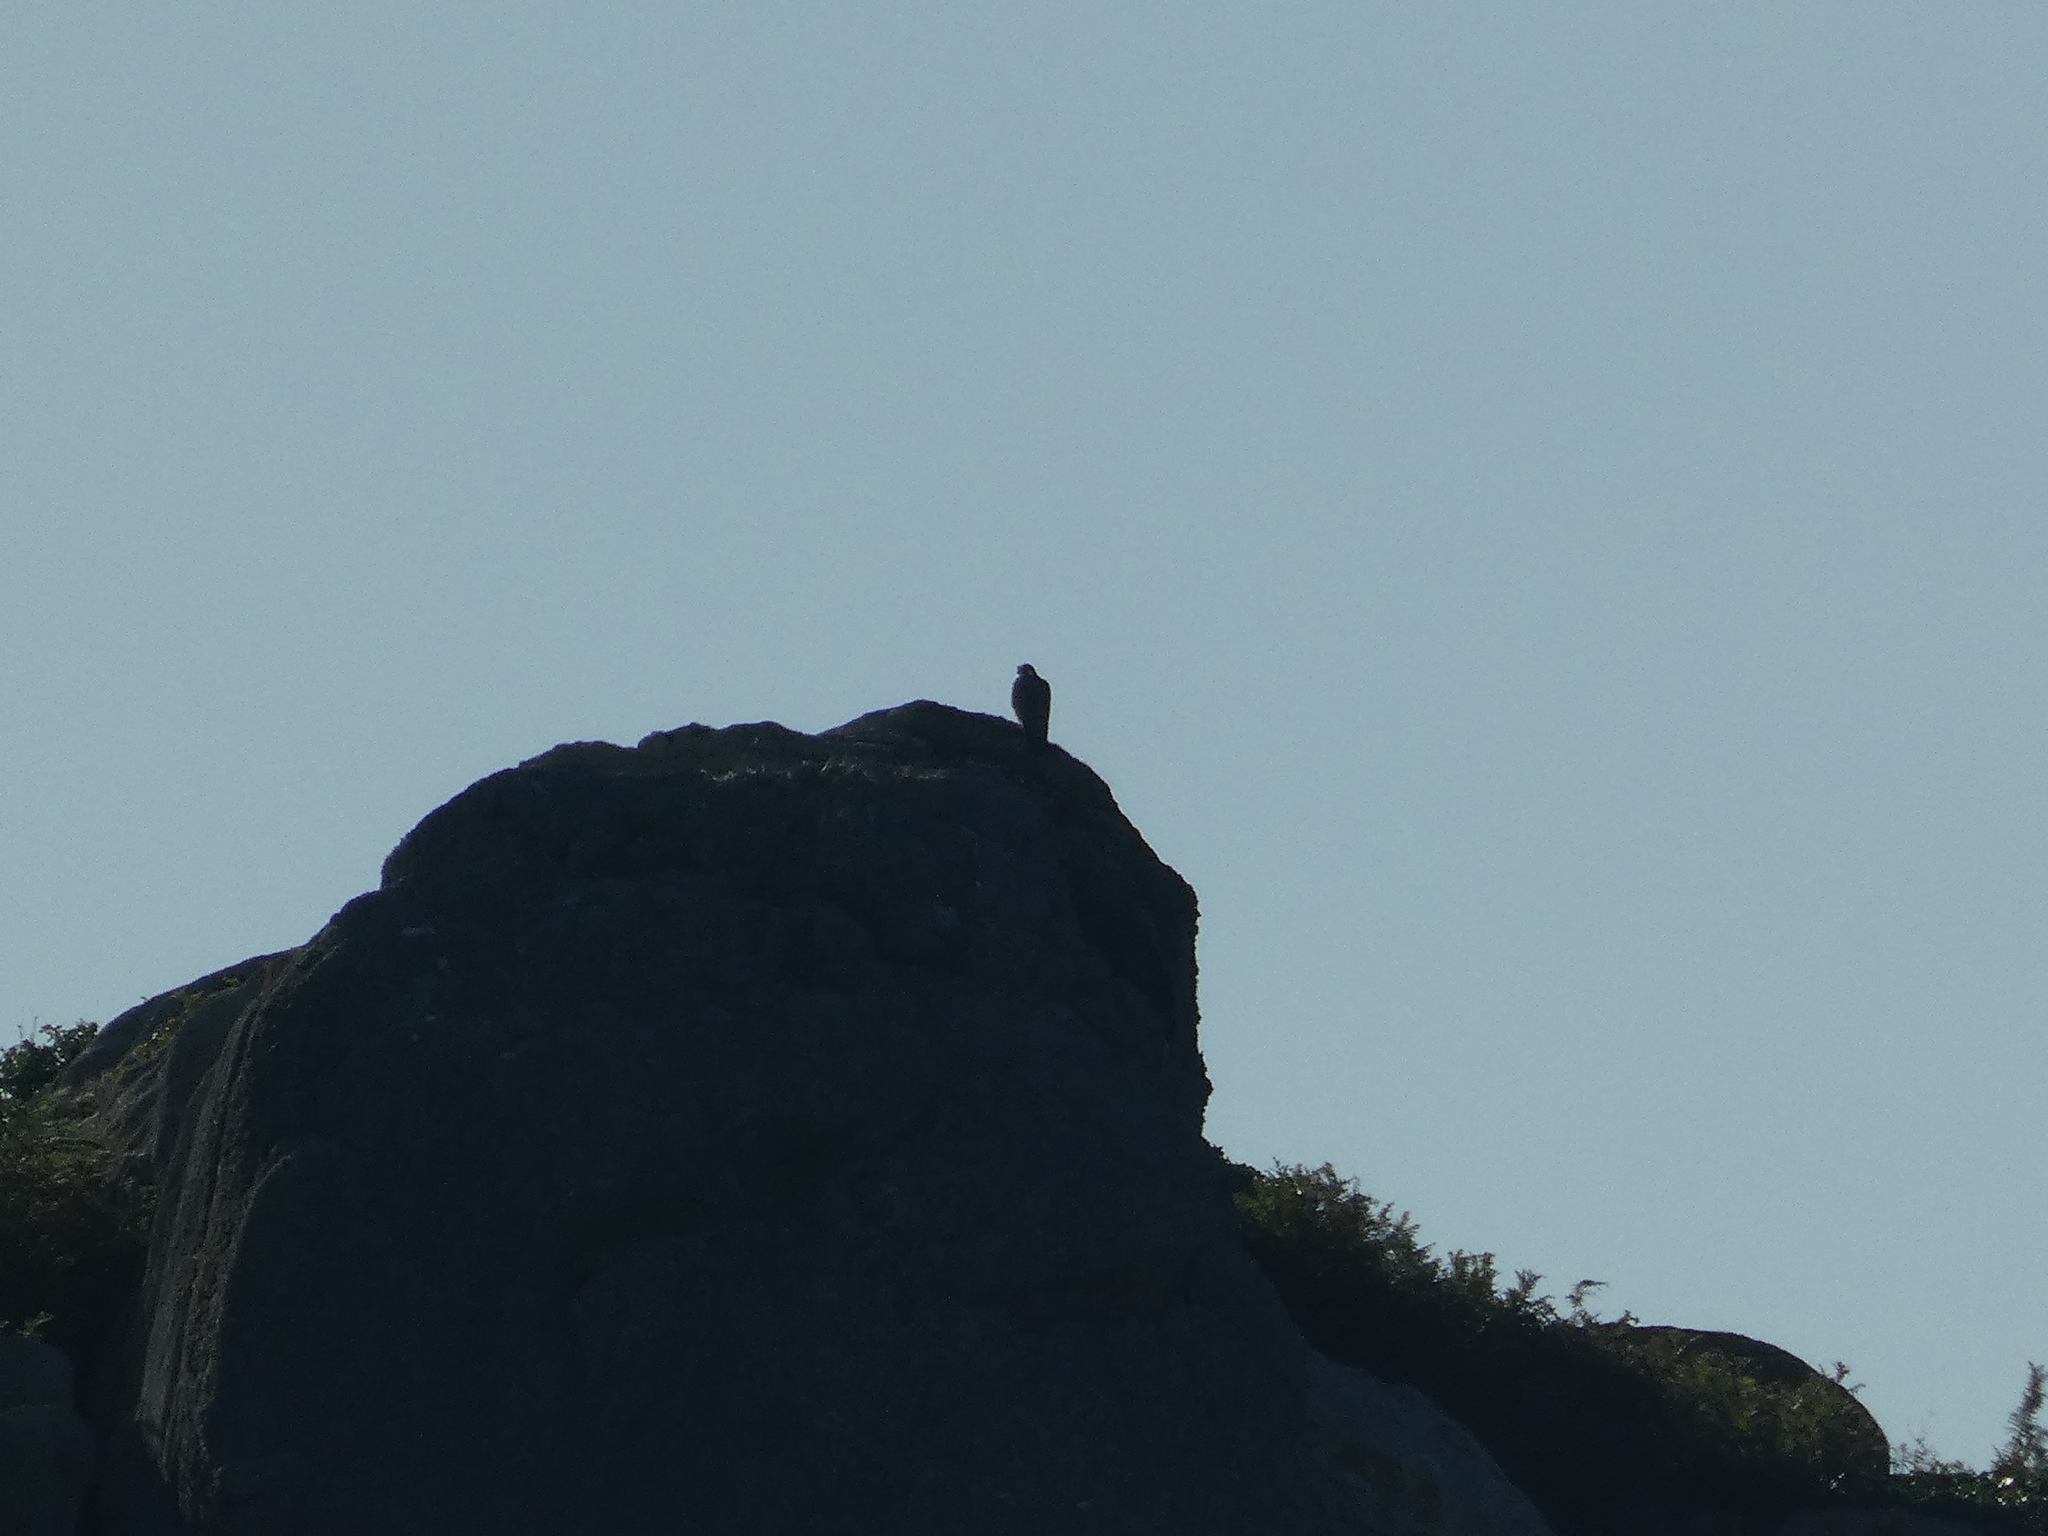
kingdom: Animalia
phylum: Chordata
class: Aves
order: Falconiformes
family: Falconidae
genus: Falco
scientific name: Falco peregrinus
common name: Peregrine falcon
